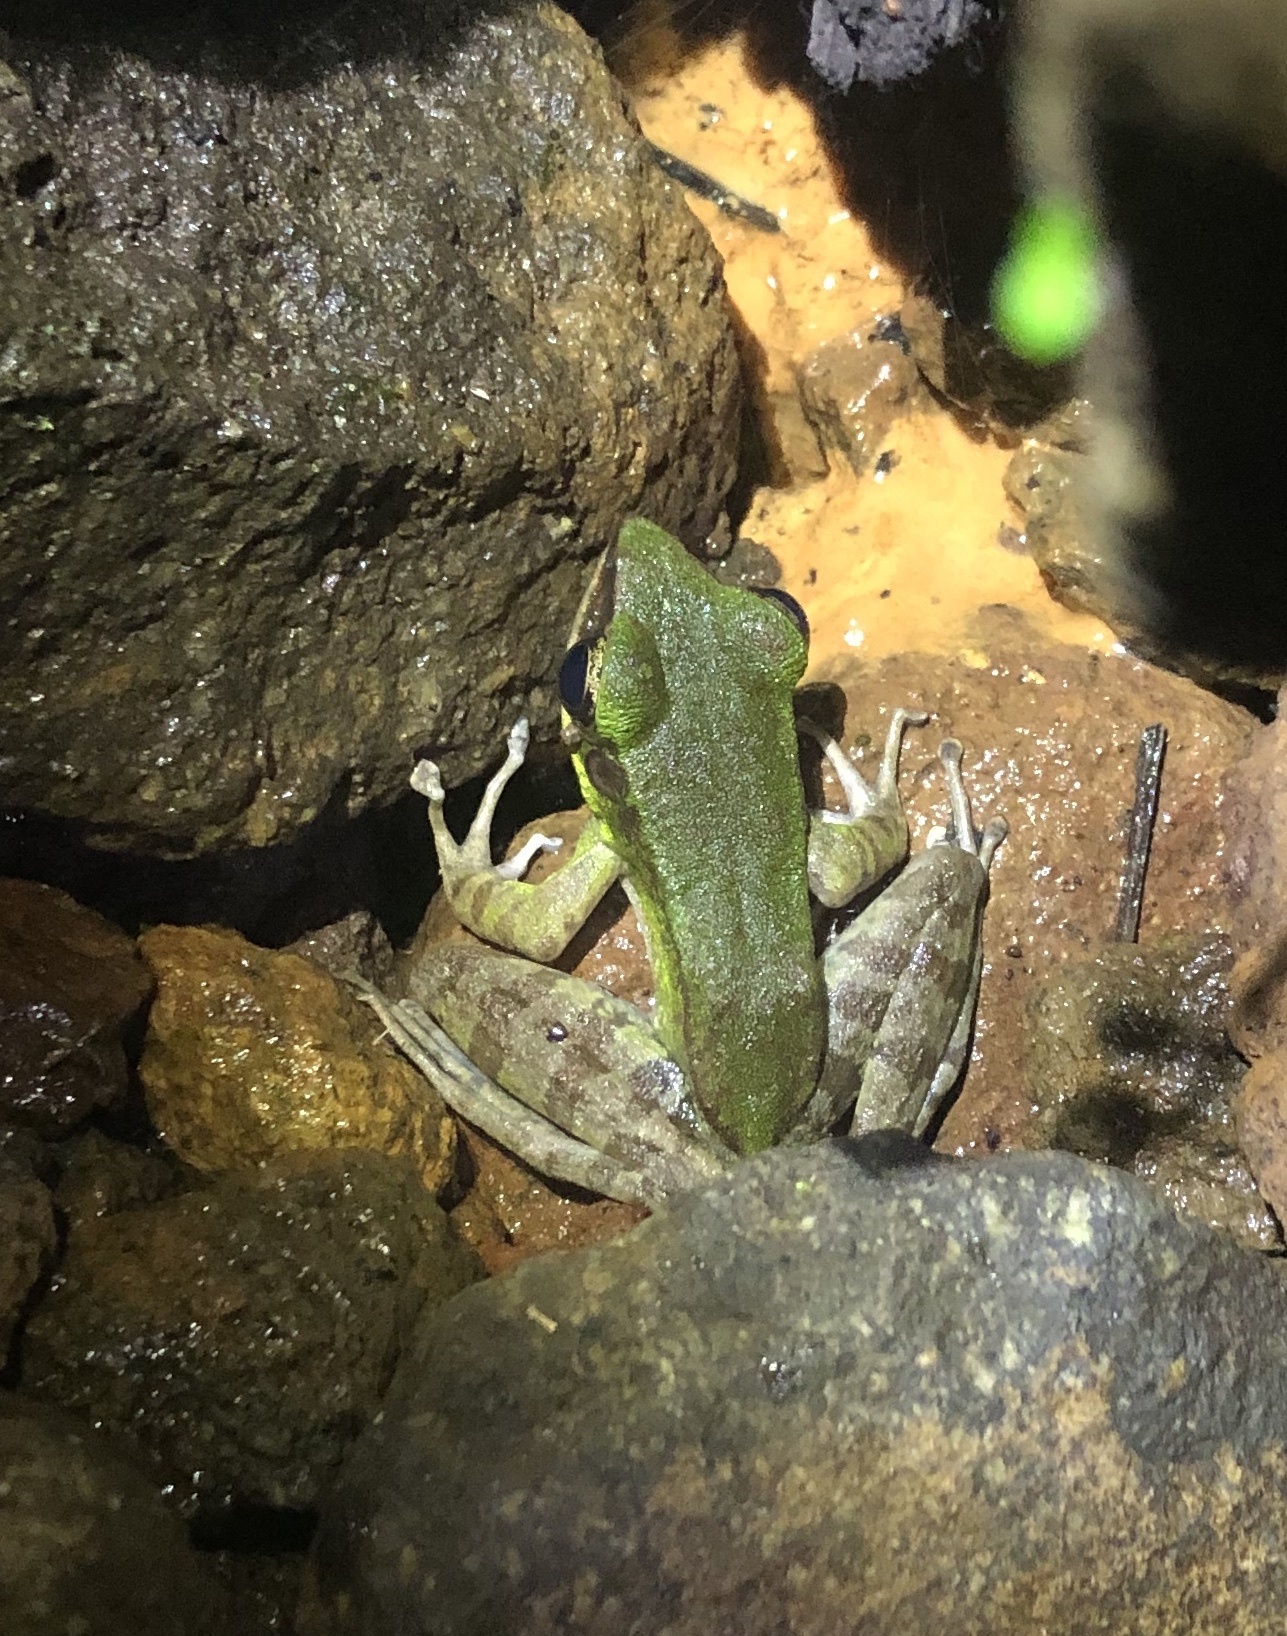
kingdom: Animalia
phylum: Chordata
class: Amphibia
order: Anura
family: Ranidae
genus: Odorrana
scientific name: Odorrana hosii
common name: Green tree frog
